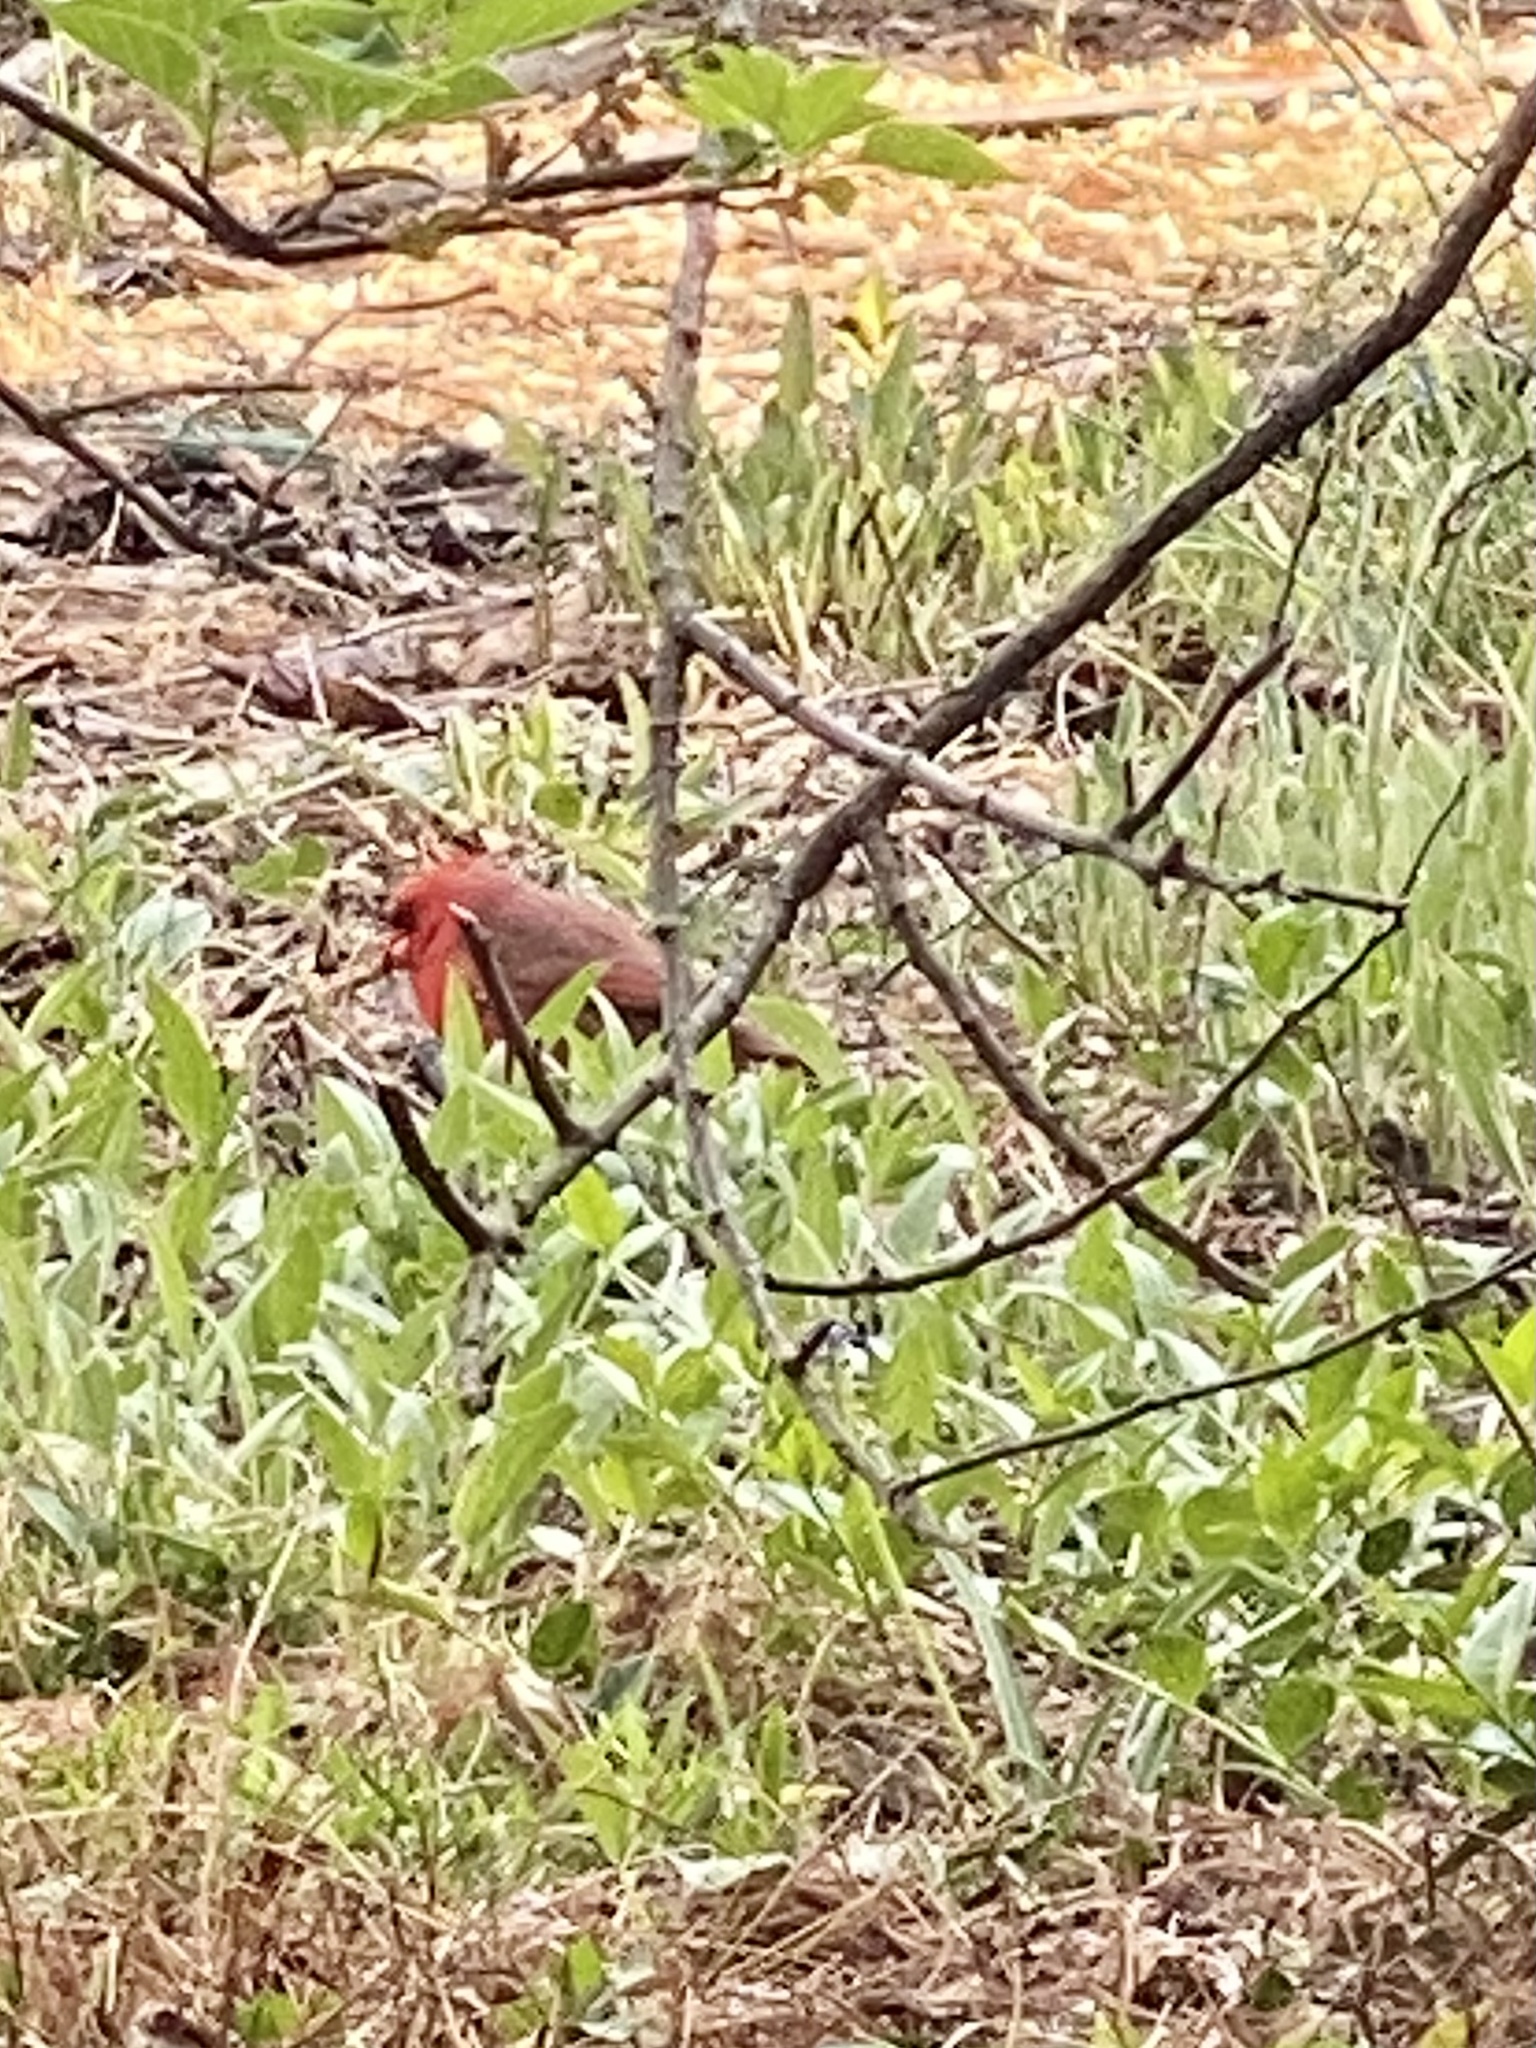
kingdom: Animalia
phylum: Chordata
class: Aves
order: Passeriformes
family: Cardinalidae
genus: Cardinalis
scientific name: Cardinalis cardinalis
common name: Northern cardinal
